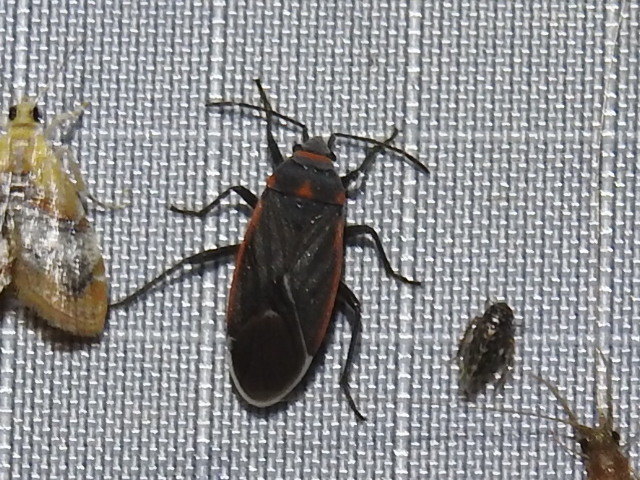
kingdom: Animalia
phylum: Arthropoda
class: Insecta
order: Hemiptera
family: Lygaeidae
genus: Melacoryphus
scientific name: Melacoryphus lateralis
